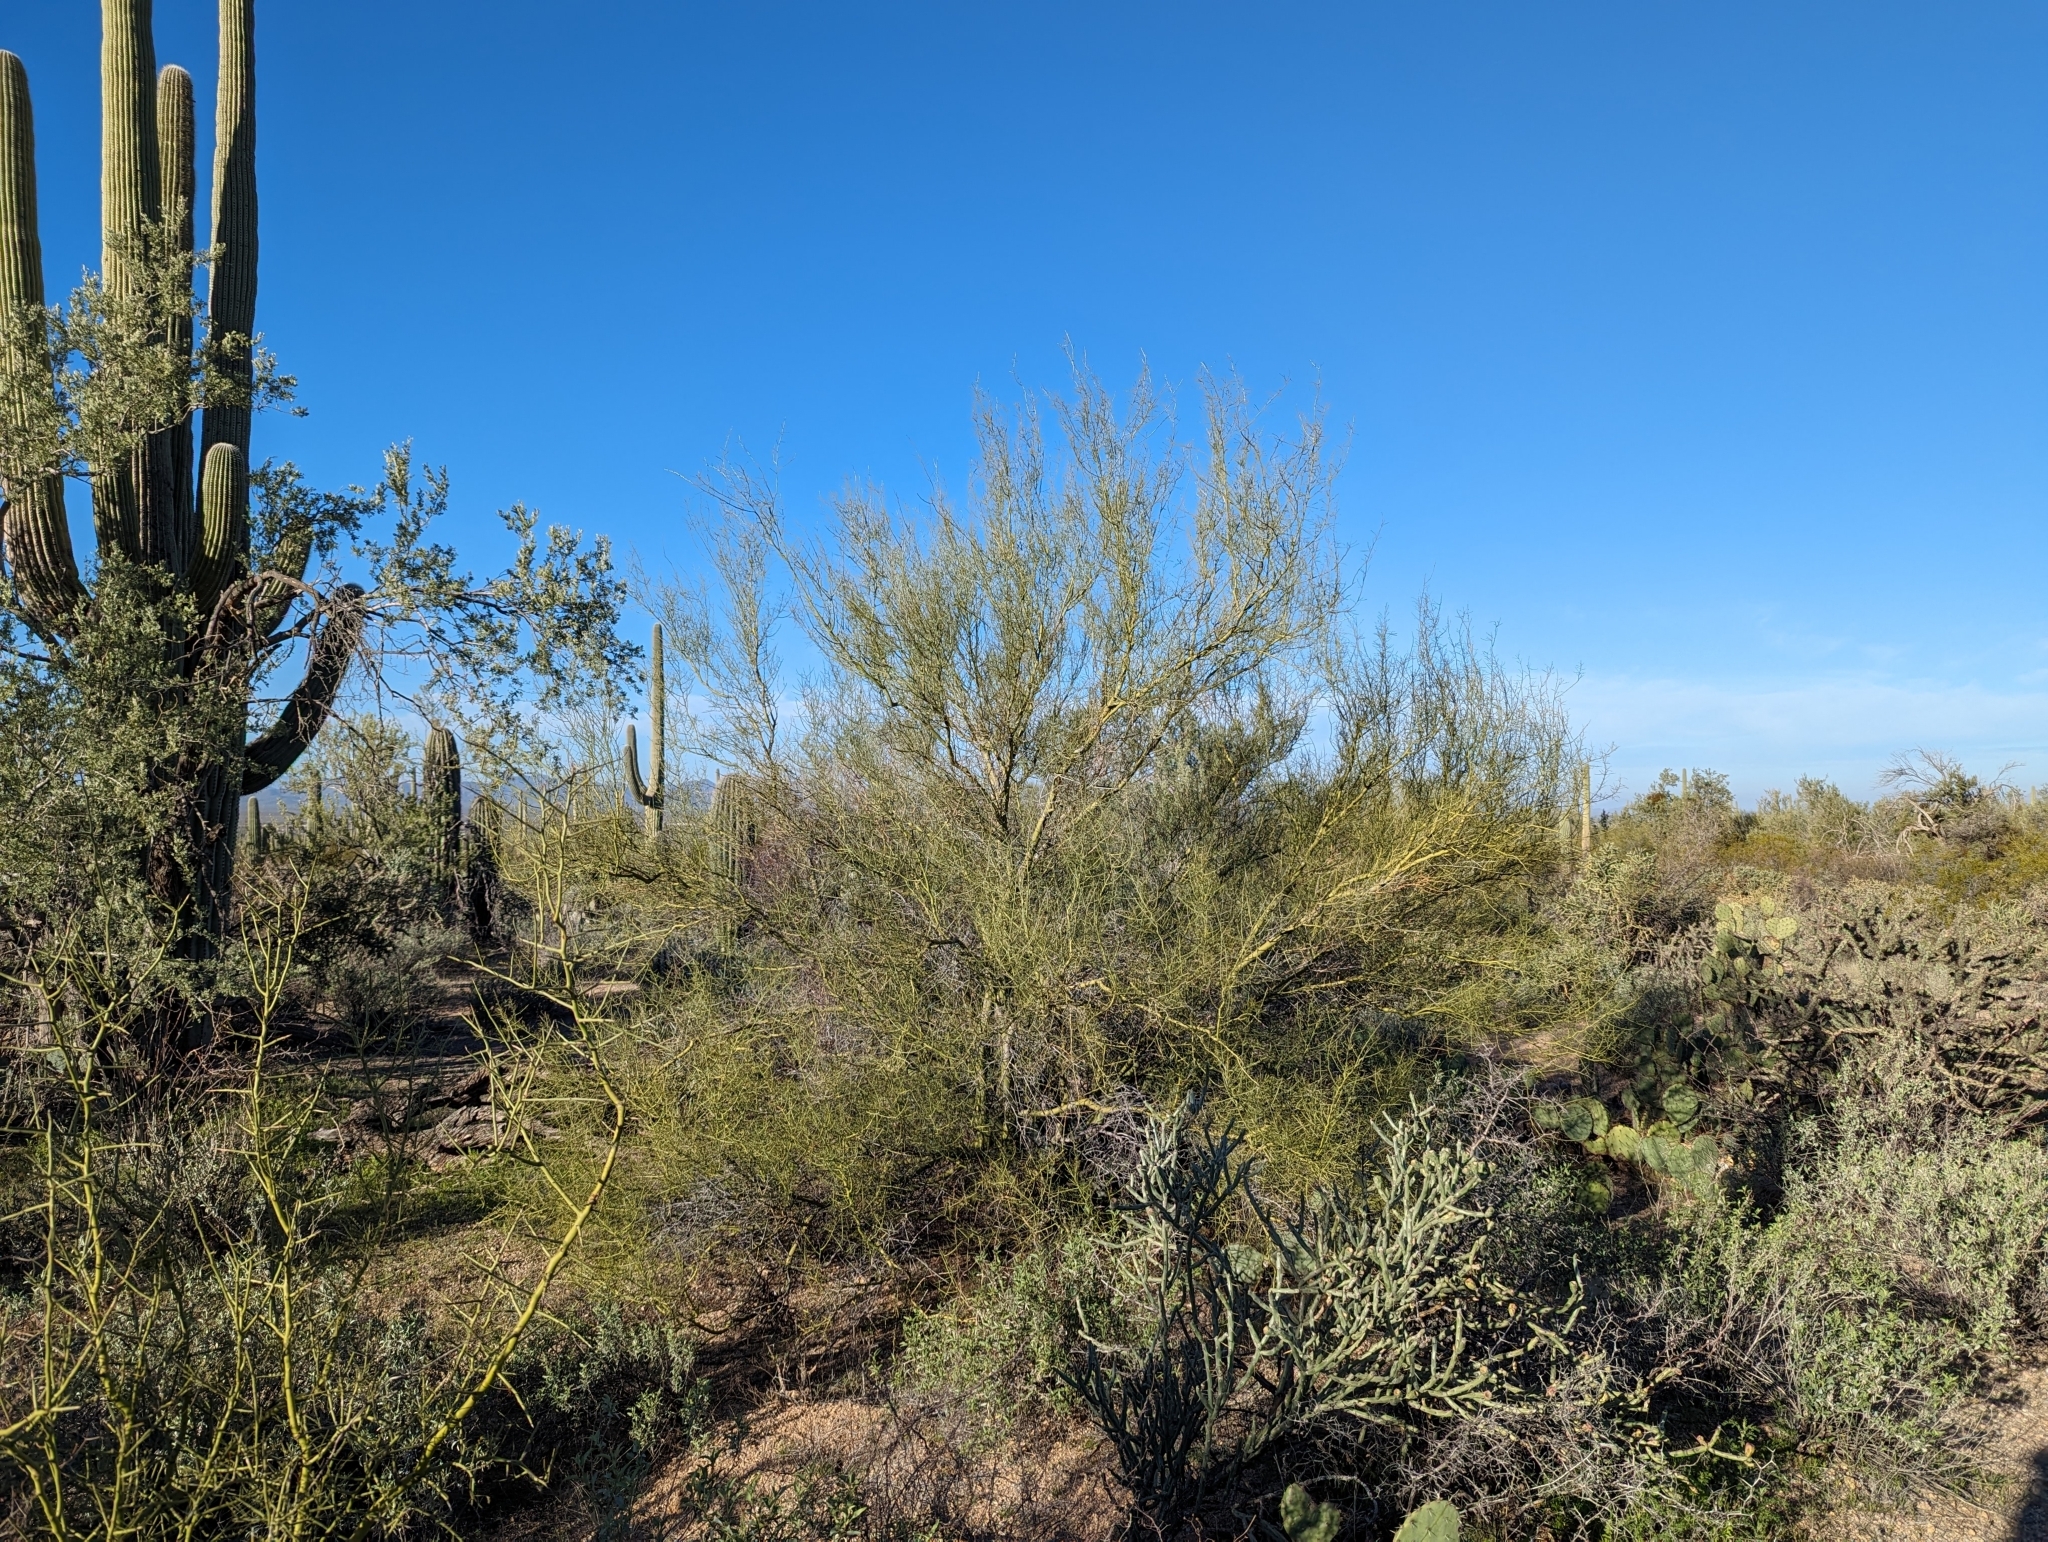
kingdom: Plantae
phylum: Tracheophyta
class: Magnoliopsida
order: Fabales
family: Fabaceae
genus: Parkinsonia
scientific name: Parkinsonia microphylla
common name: Yellow paloverde
